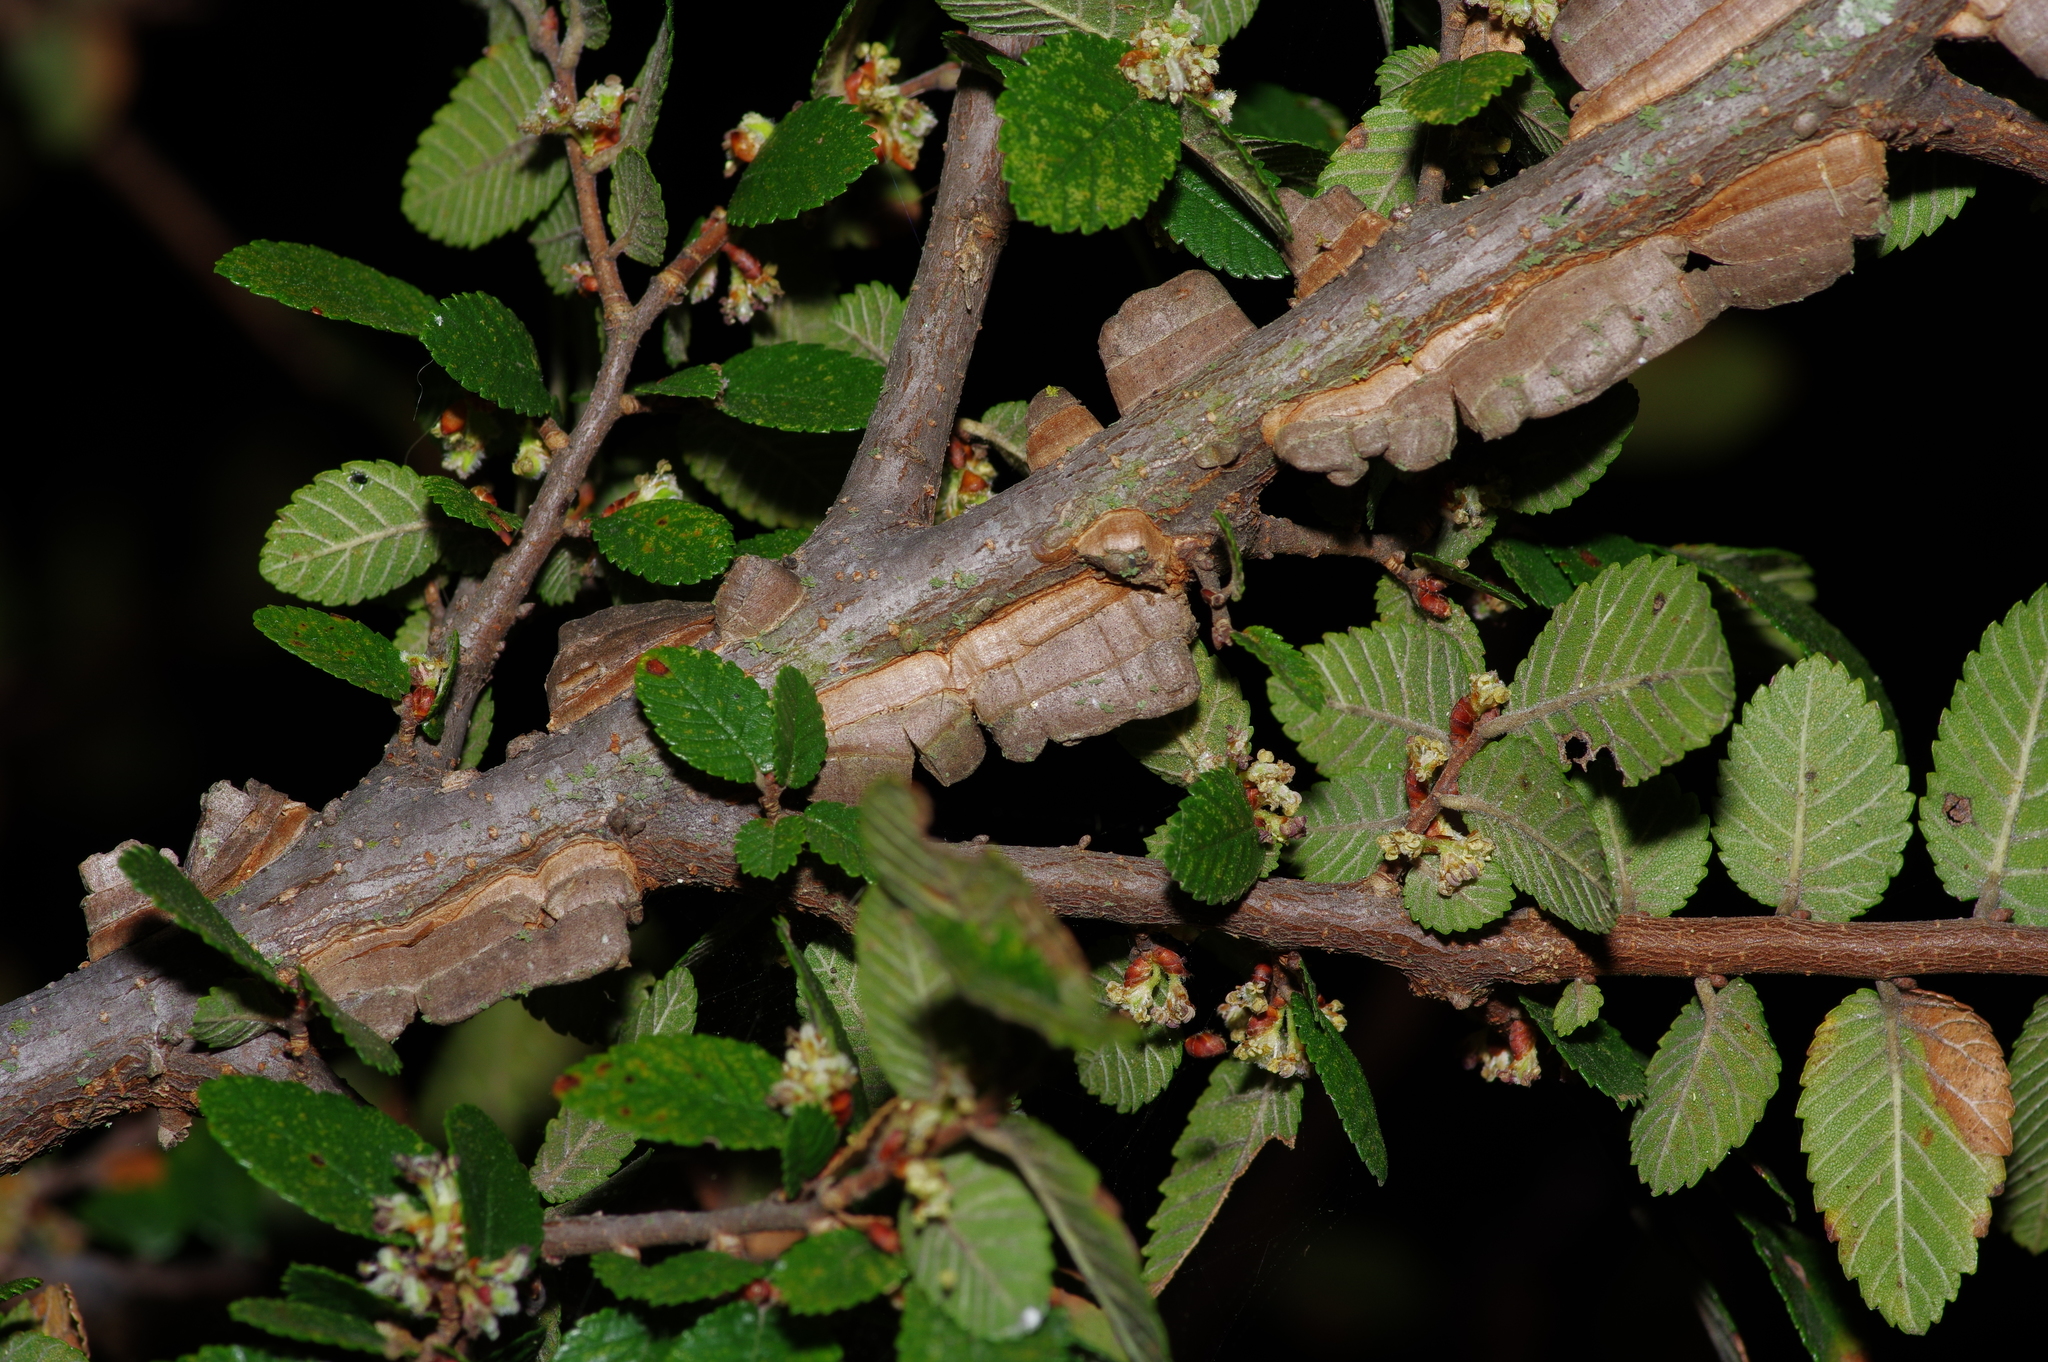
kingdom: Plantae
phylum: Tracheophyta
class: Magnoliopsida
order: Rosales
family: Ulmaceae
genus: Ulmus
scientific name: Ulmus crassifolia
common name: Basket elm
